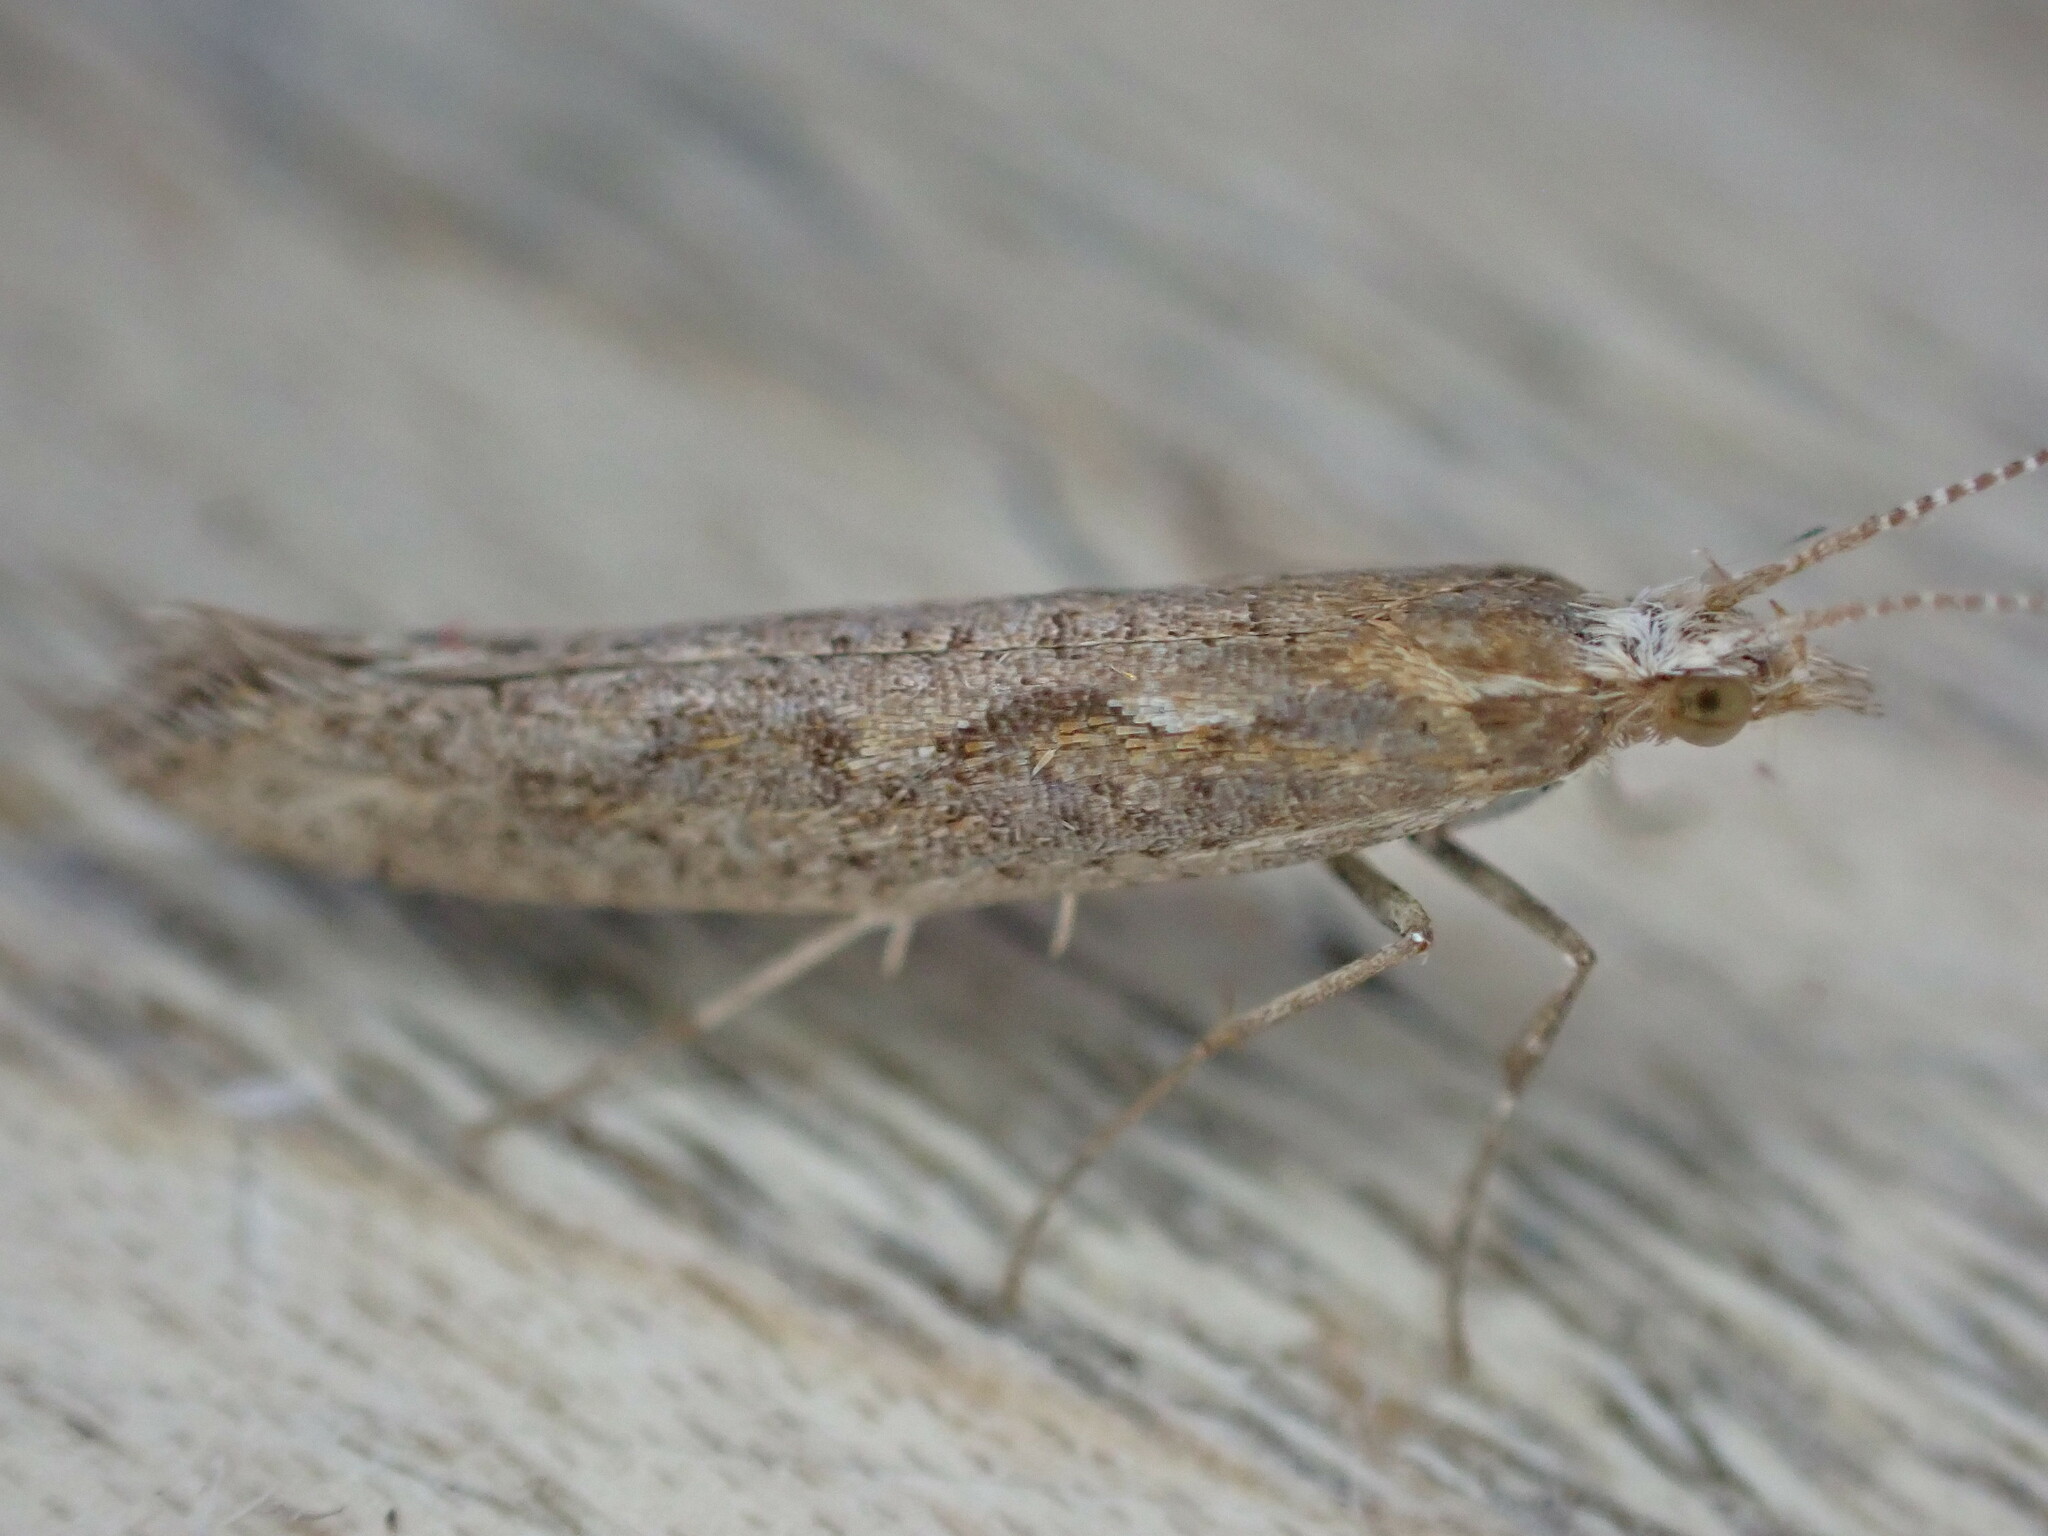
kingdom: Animalia
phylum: Arthropoda
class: Insecta
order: Lepidoptera
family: Plutellidae
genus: Plutella
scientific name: Plutella xylostella
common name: Diamond-back moth
